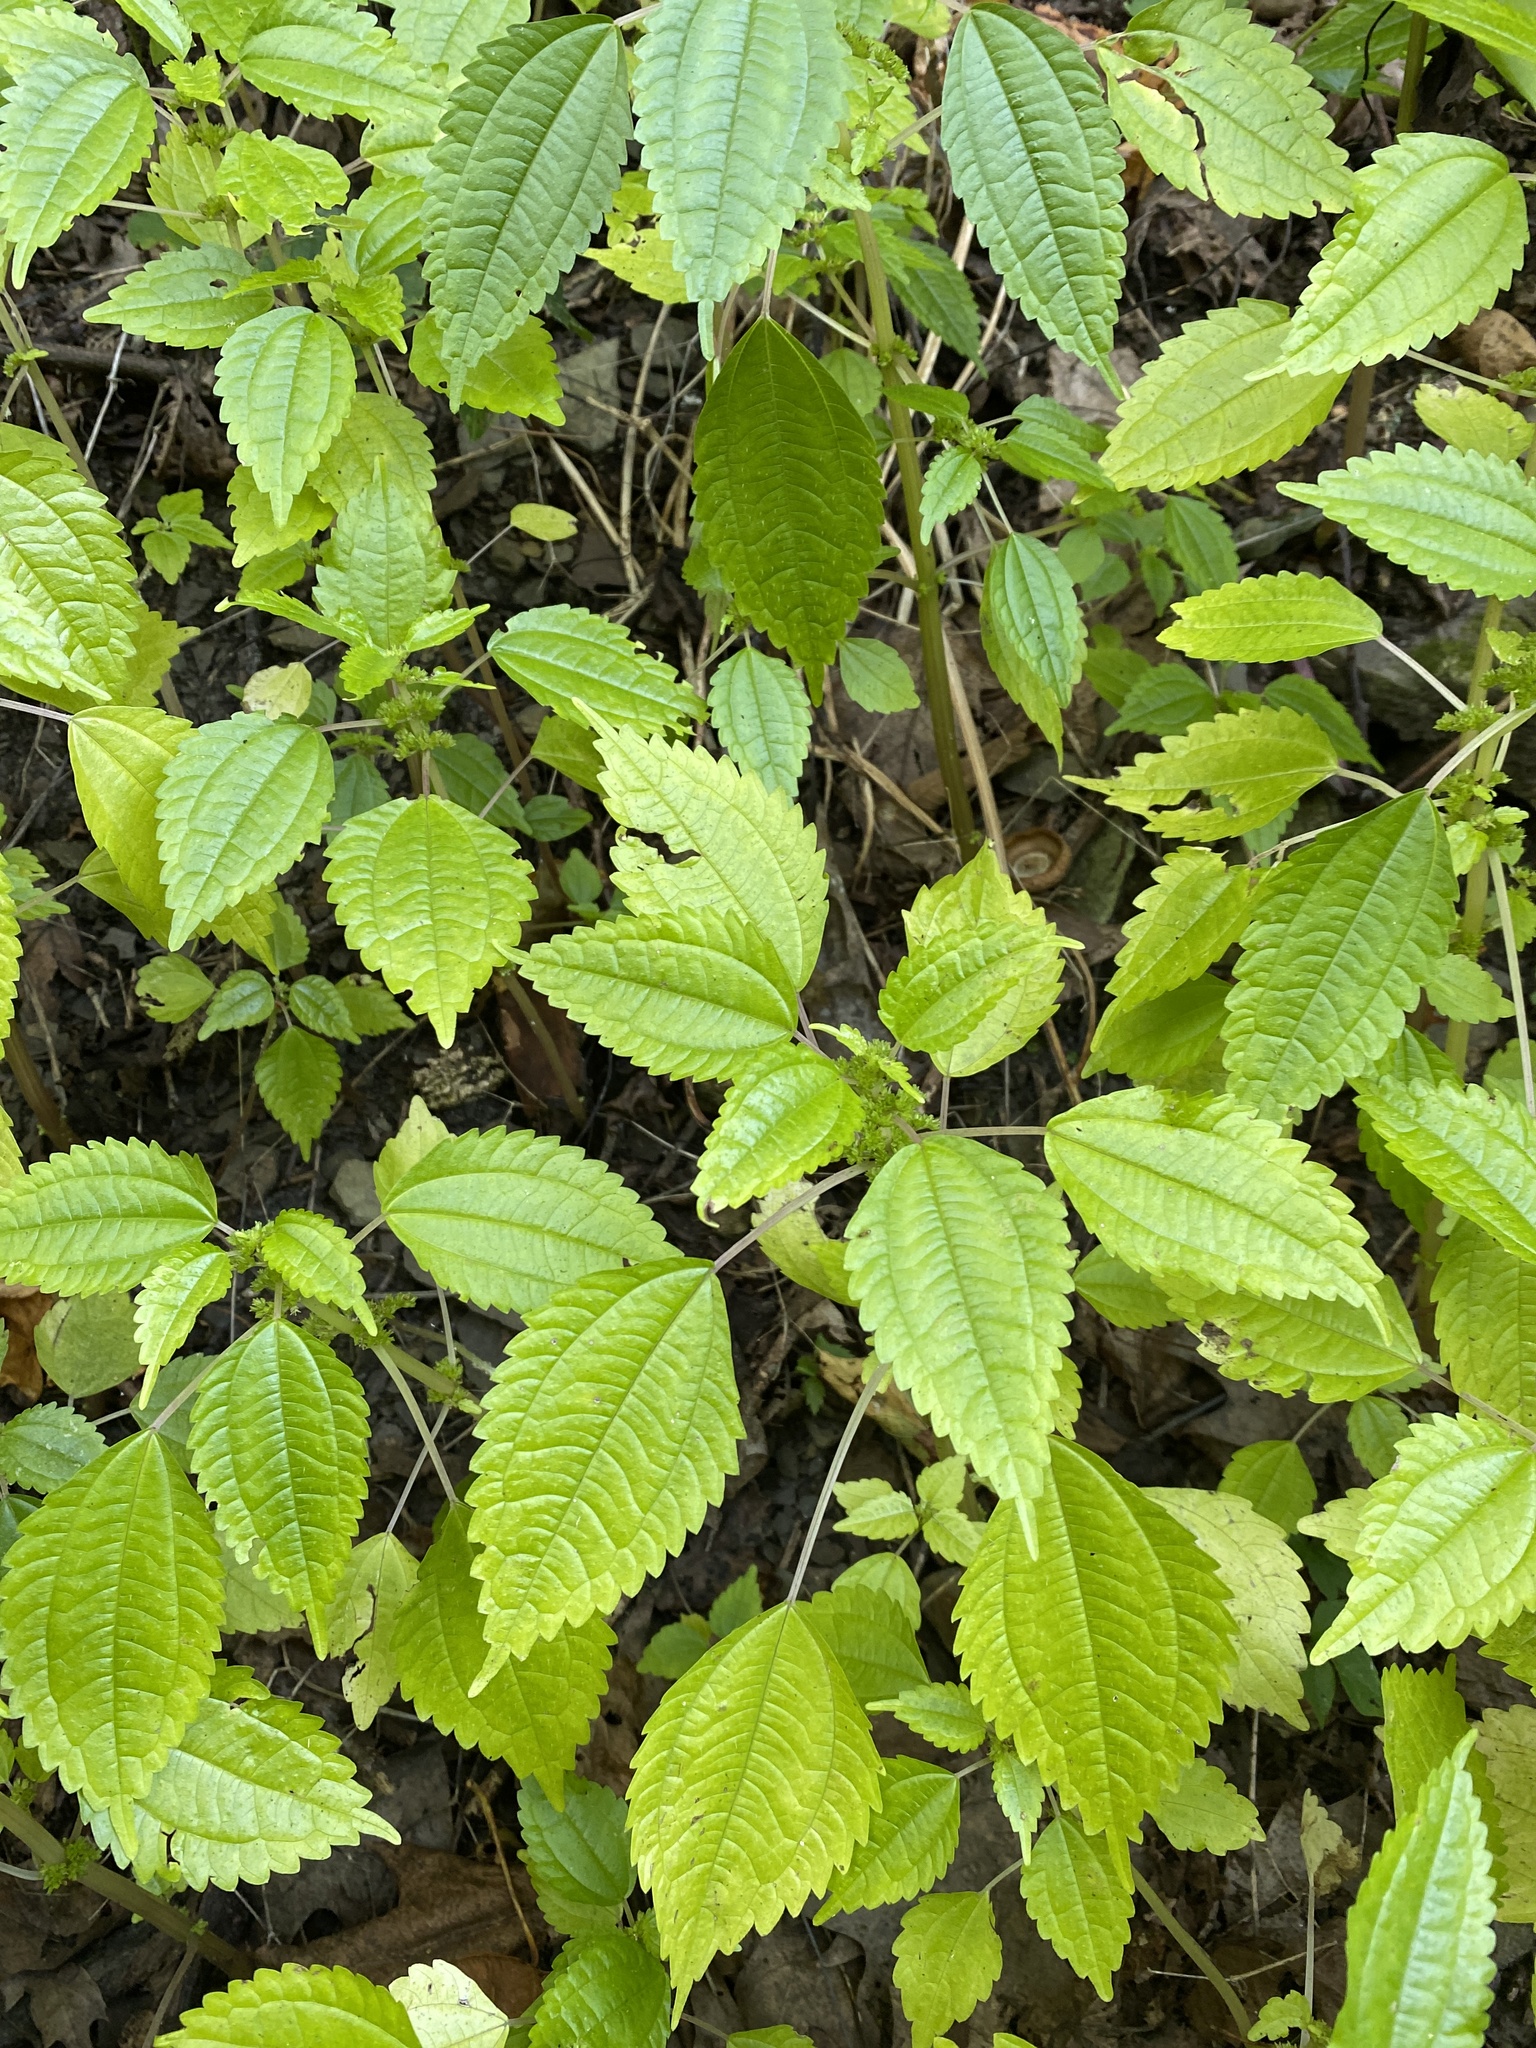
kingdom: Plantae
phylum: Tracheophyta
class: Magnoliopsida
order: Rosales
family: Urticaceae
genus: Pilea
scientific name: Pilea pumila
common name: Clearweed
